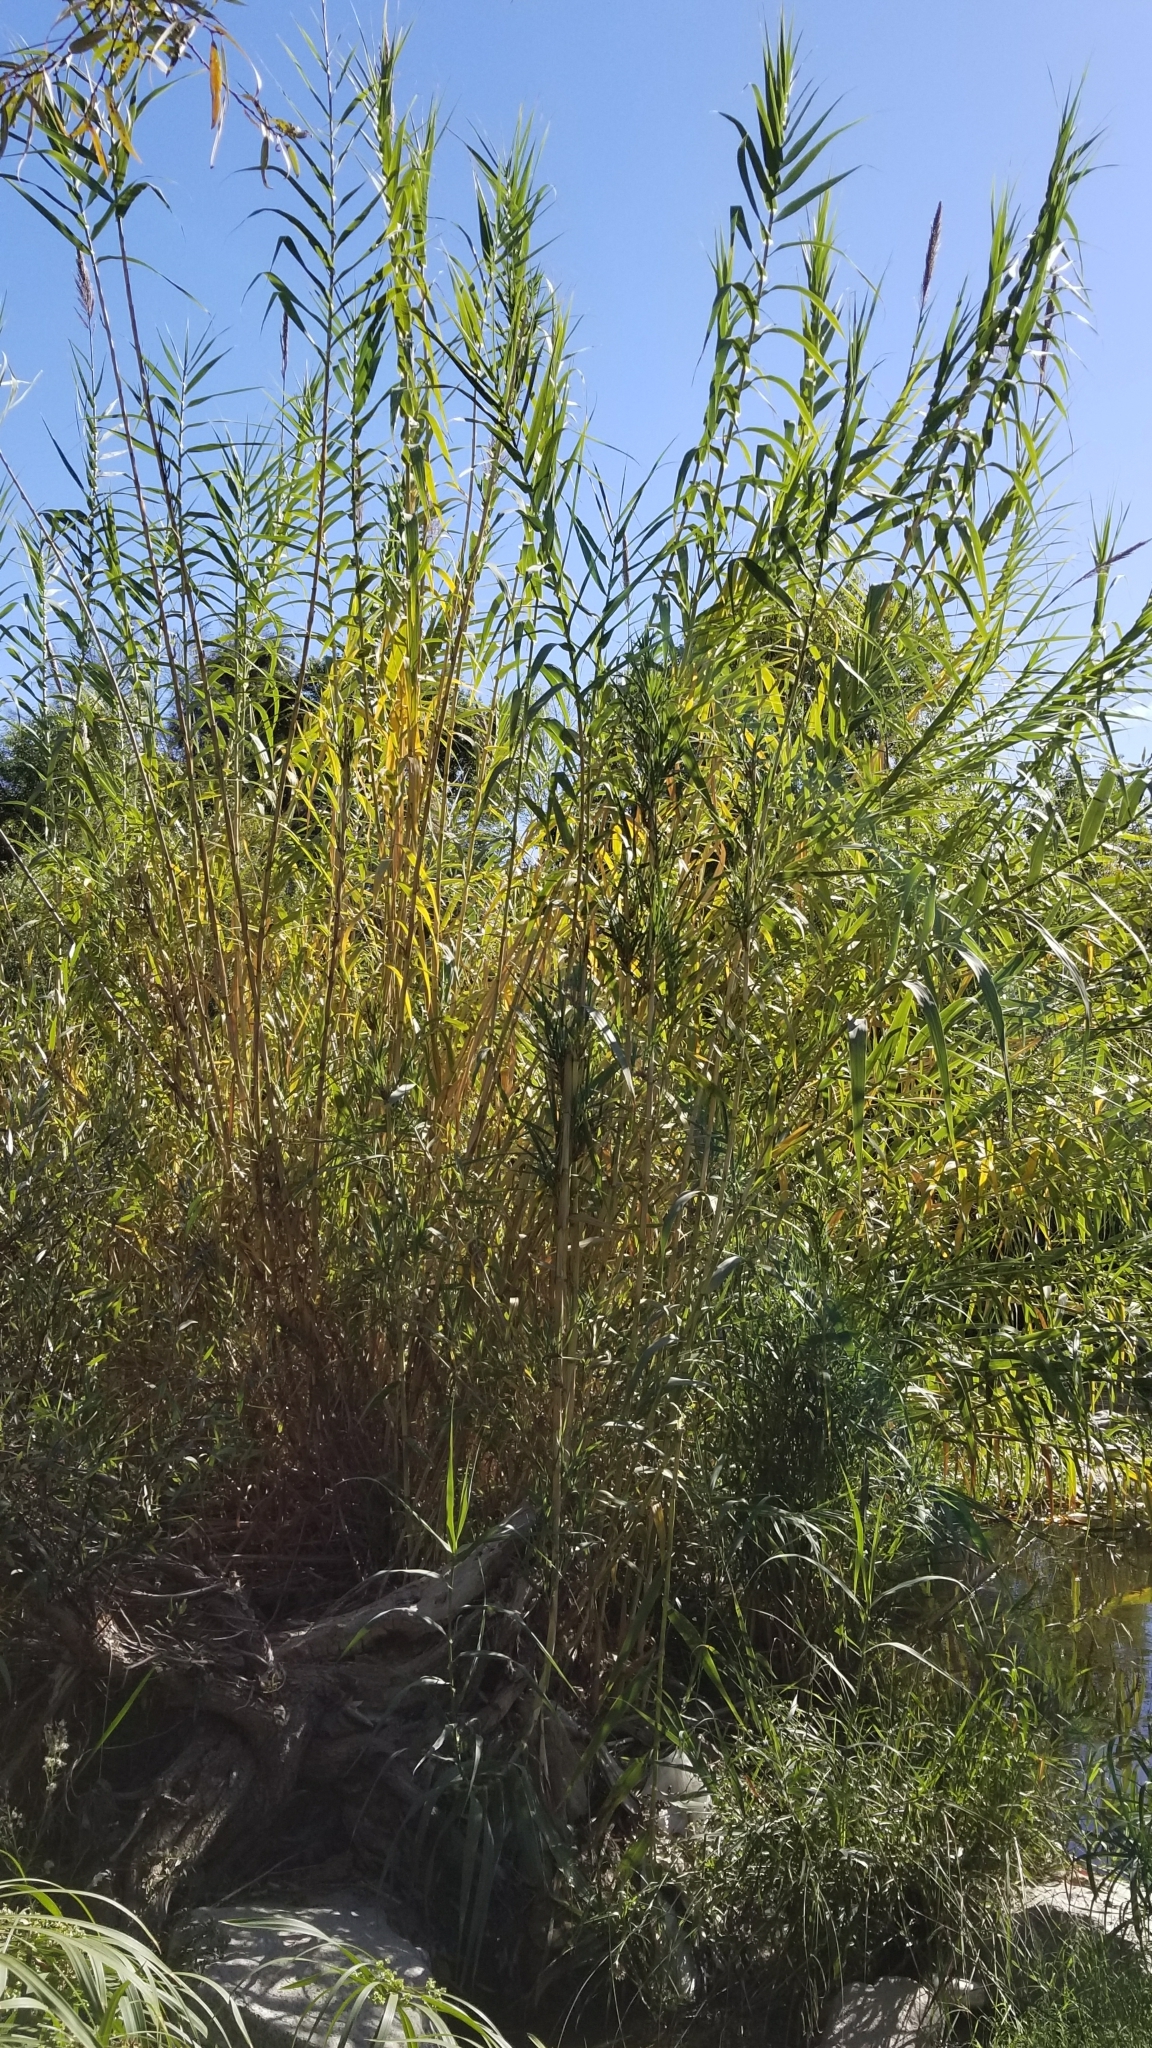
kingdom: Plantae
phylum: Tracheophyta
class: Liliopsida
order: Poales
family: Poaceae
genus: Arundo
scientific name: Arundo donax
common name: Giant reed
